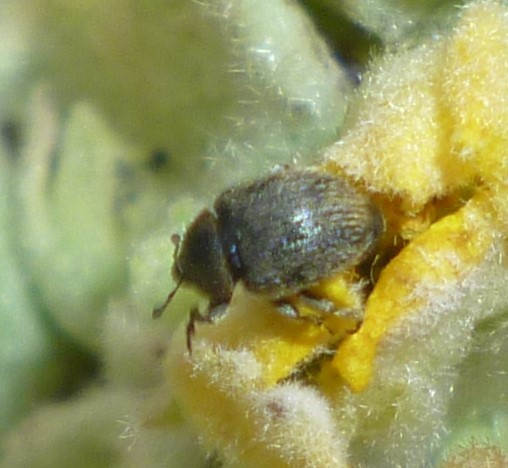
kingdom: Animalia
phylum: Arthropoda
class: Insecta
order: Coleoptera
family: Curculionidae
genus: Rhinusa
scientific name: Rhinusa tetra
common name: Weevil
